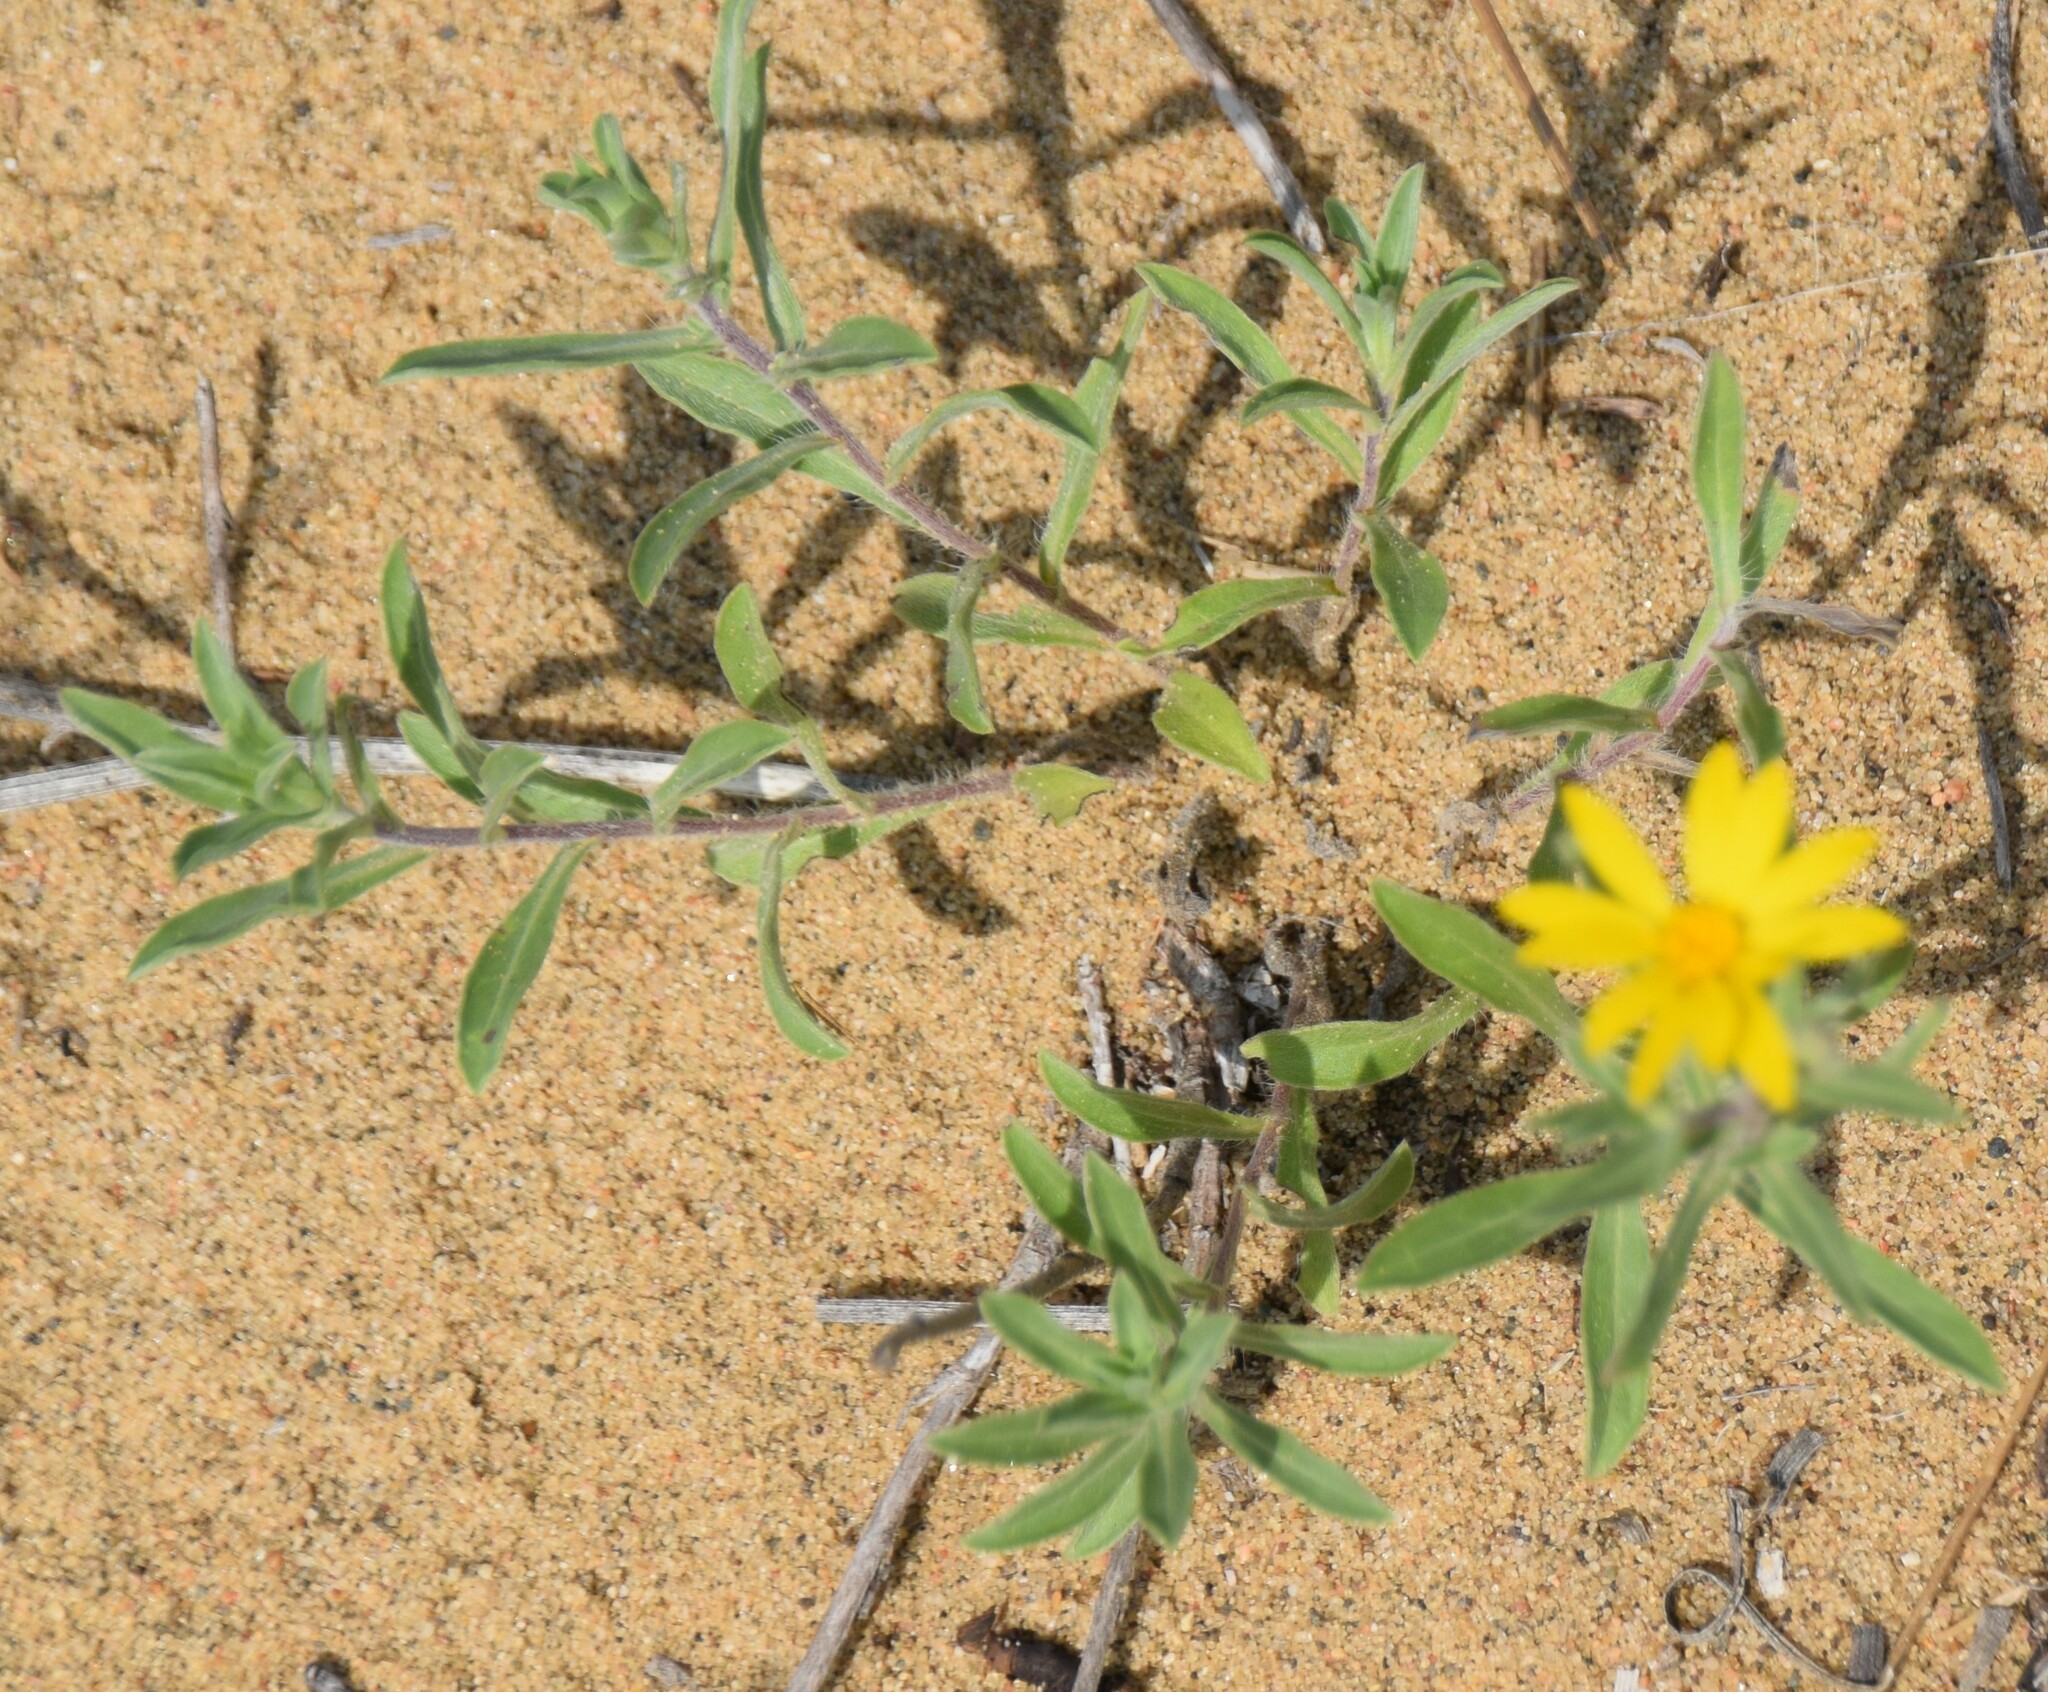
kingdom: Plantae
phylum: Tracheophyta
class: Magnoliopsida
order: Asterales
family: Asteraceae
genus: Heterotheca
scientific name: Heterotheca villosa
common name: Hairy false goldenaster
